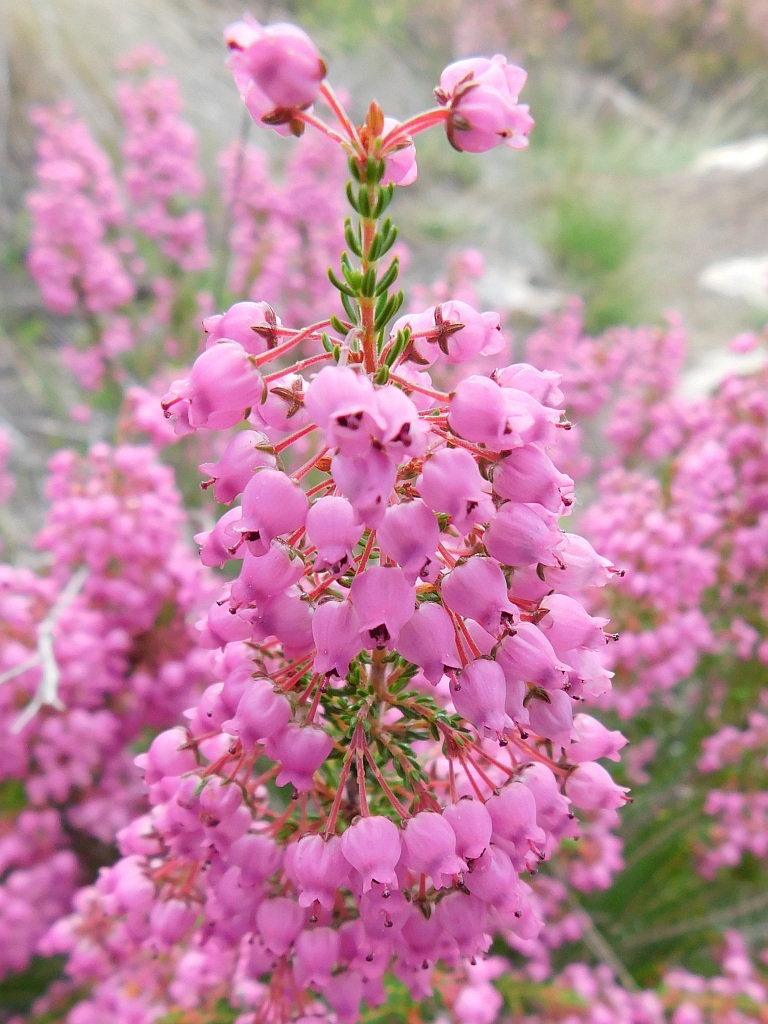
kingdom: Plantae
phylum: Tracheophyta
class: Magnoliopsida
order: Ericales
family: Ericaceae
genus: Erica
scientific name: Erica lateralis
